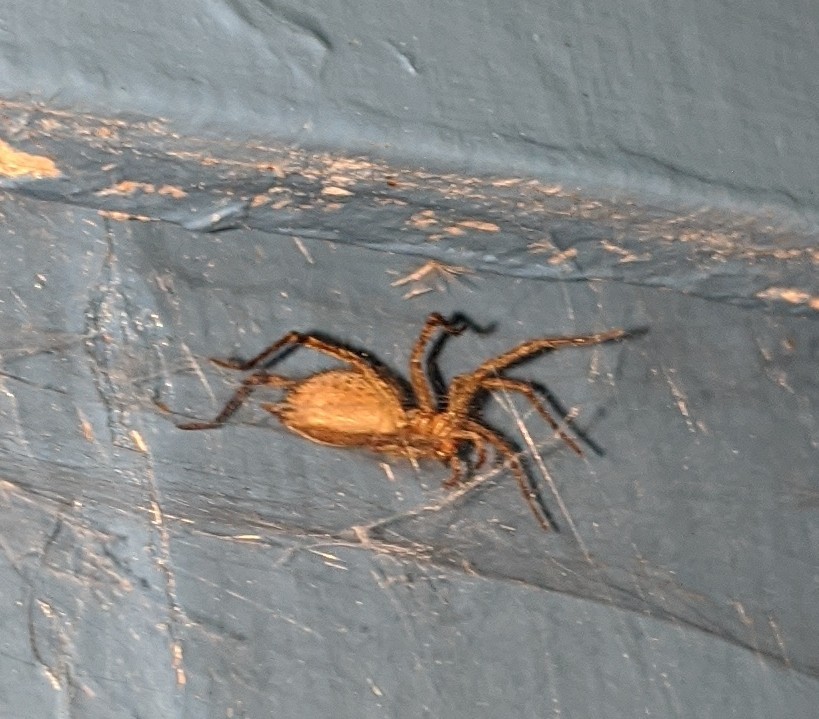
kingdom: Animalia
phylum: Arthropoda
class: Arachnida
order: Araneae
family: Agelenidae
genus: Agelenopsis
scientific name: Agelenopsis
